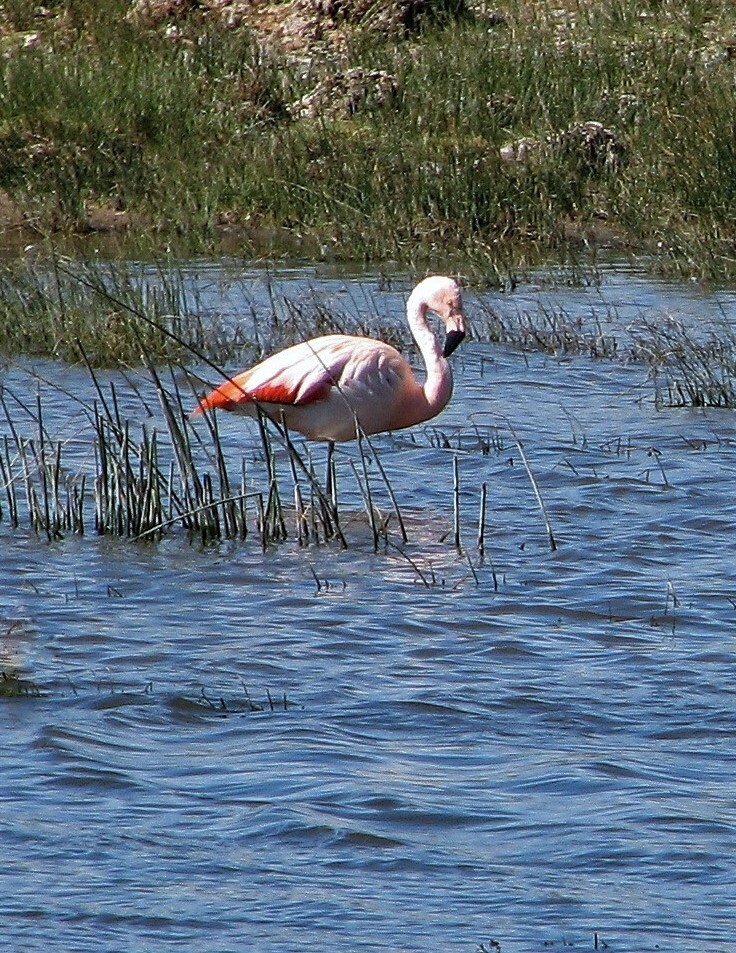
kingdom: Animalia
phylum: Chordata
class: Aves
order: Phoenicopteriformes
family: Phoenicopteridae
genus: Phoenicopterus
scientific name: Phoenicopterus chilensis
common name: Chilean flamingo
